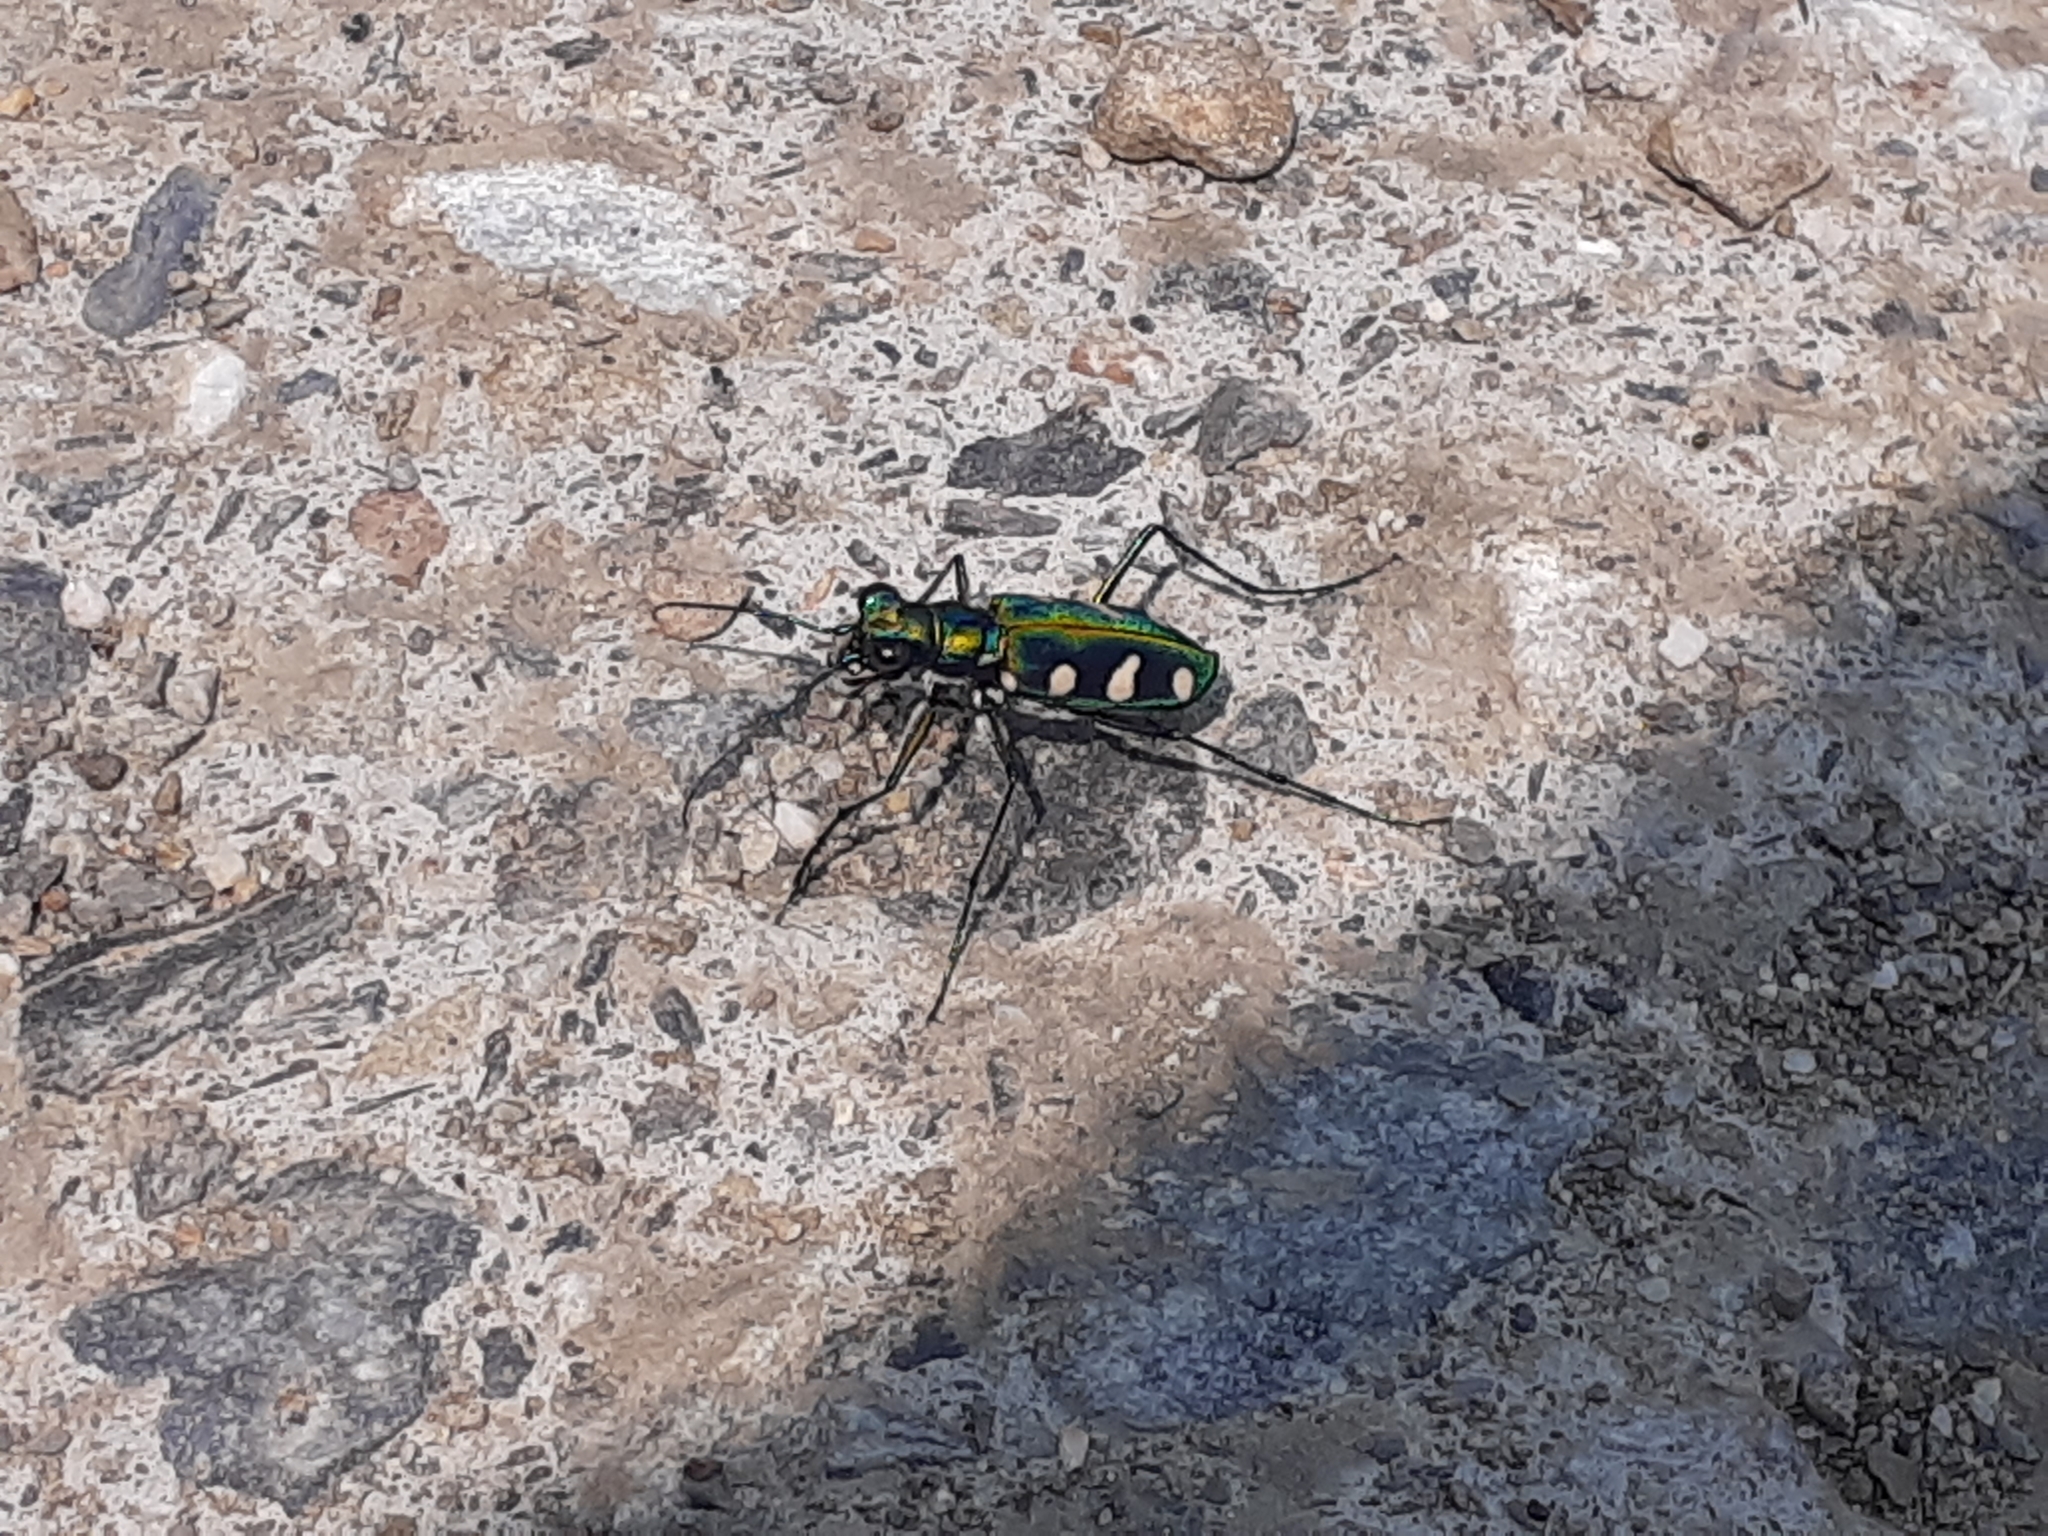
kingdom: Animalia
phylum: Arthropoda
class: Insecta
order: Coleoptera
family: Carabidae
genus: Cicindela
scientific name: Cicindela batesi
